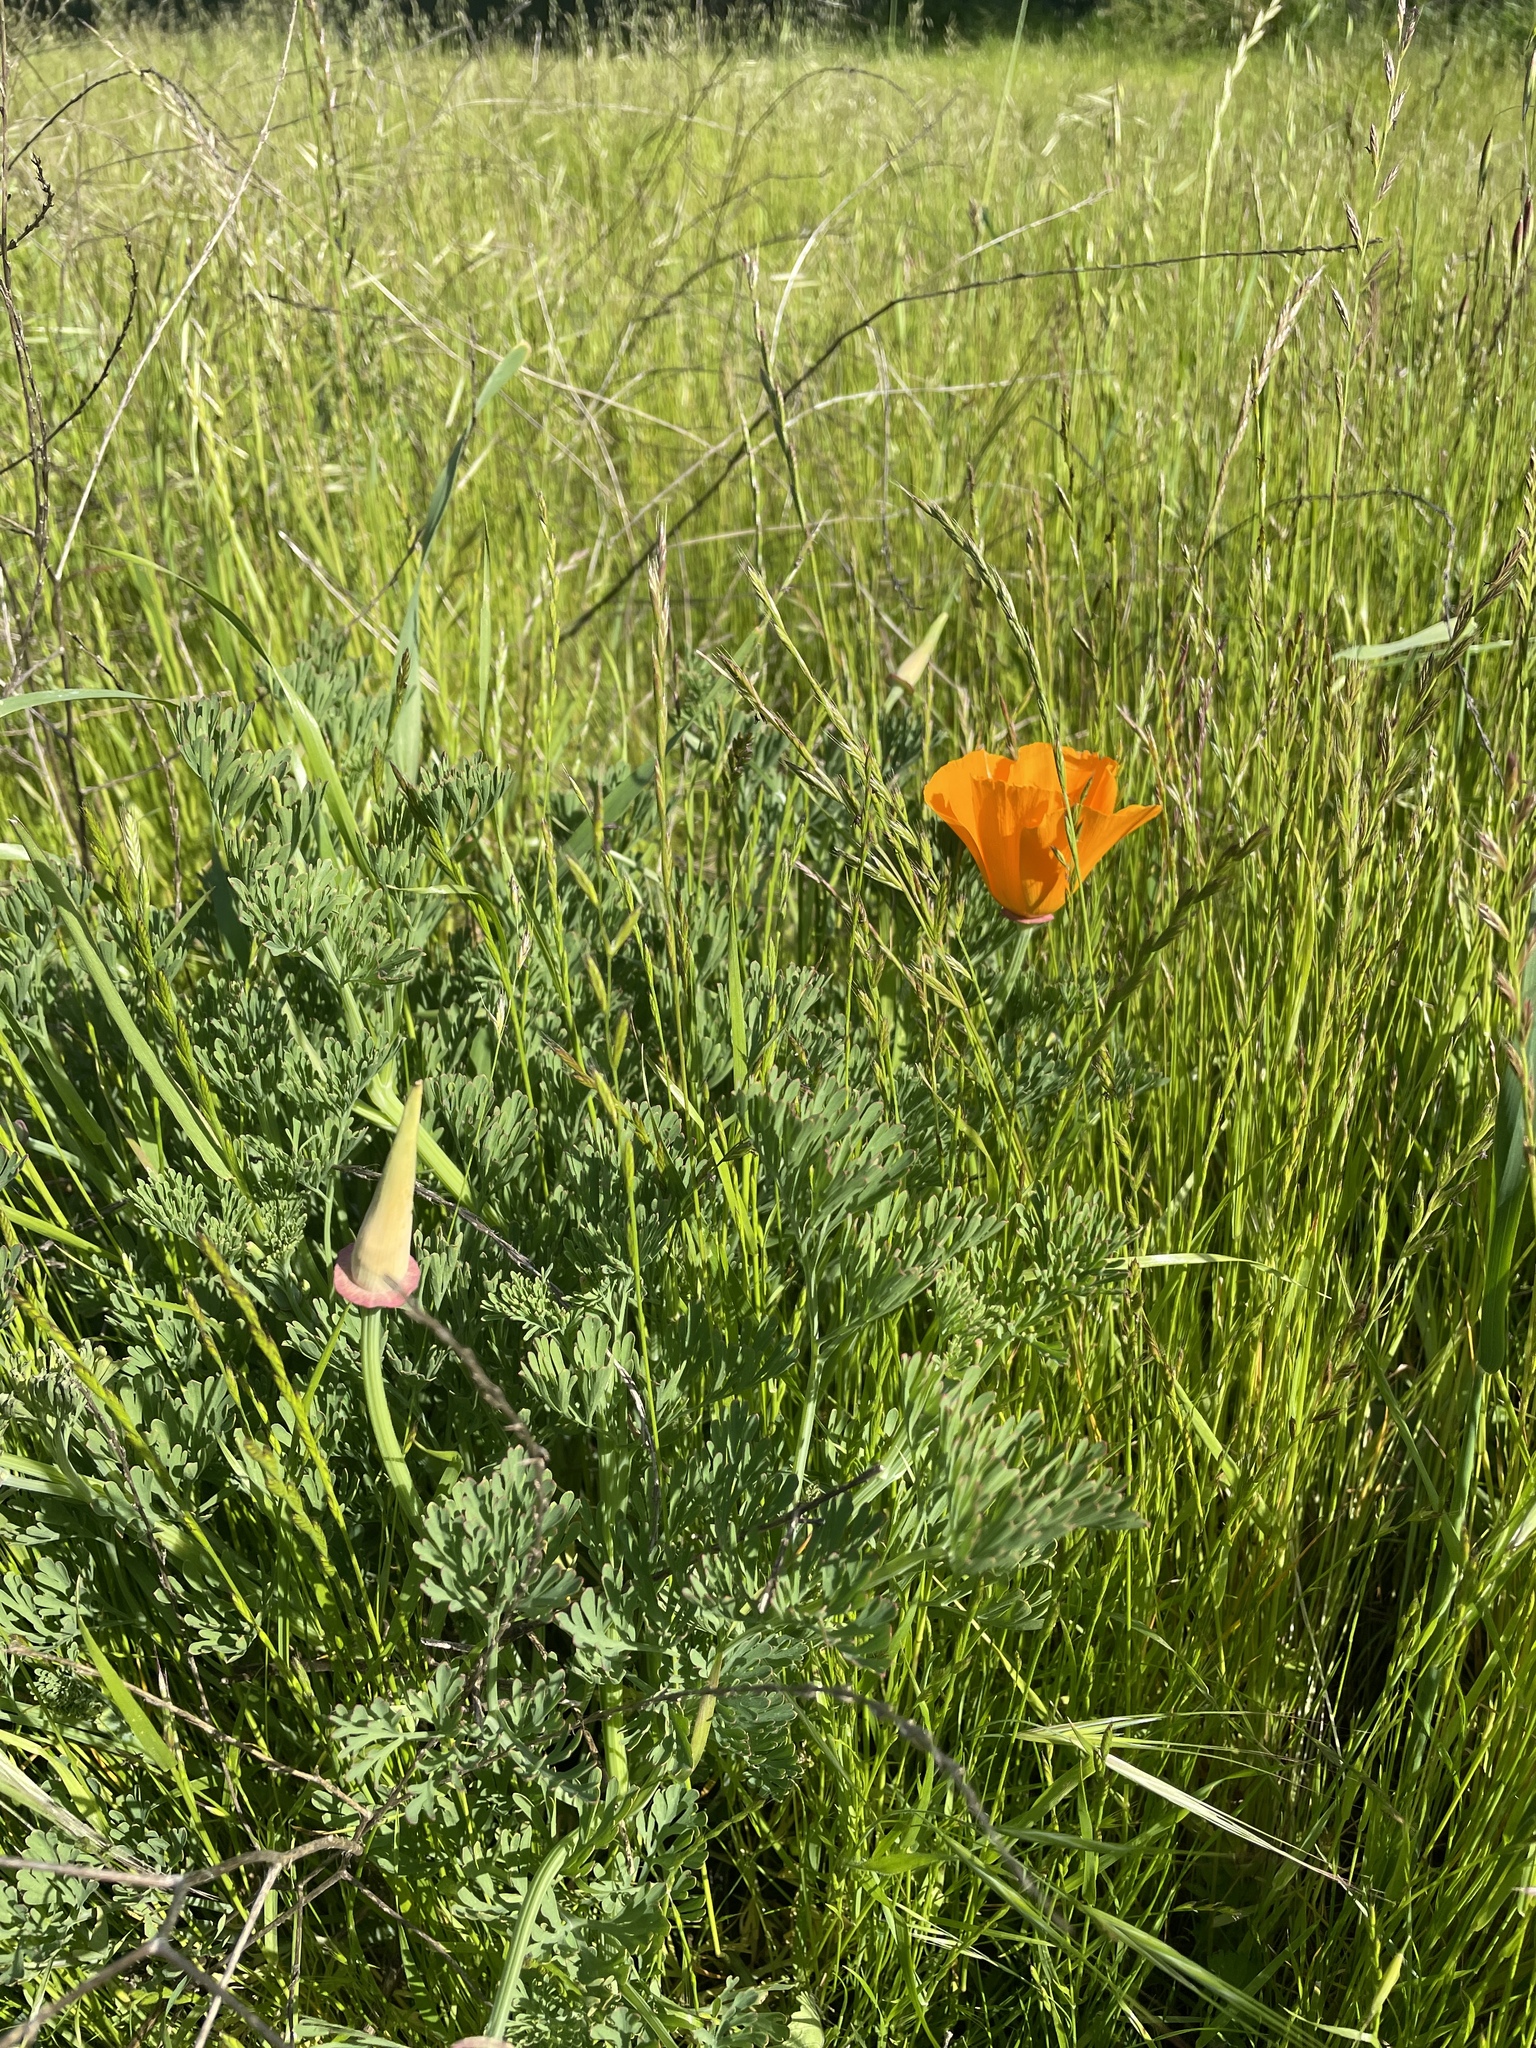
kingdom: Plantae
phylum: Tracheophyta
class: Magnoliopsida
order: Ranunculales
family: Papaveraceae
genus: Eschscholzia
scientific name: Eschscholzia californica
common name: California poppy
